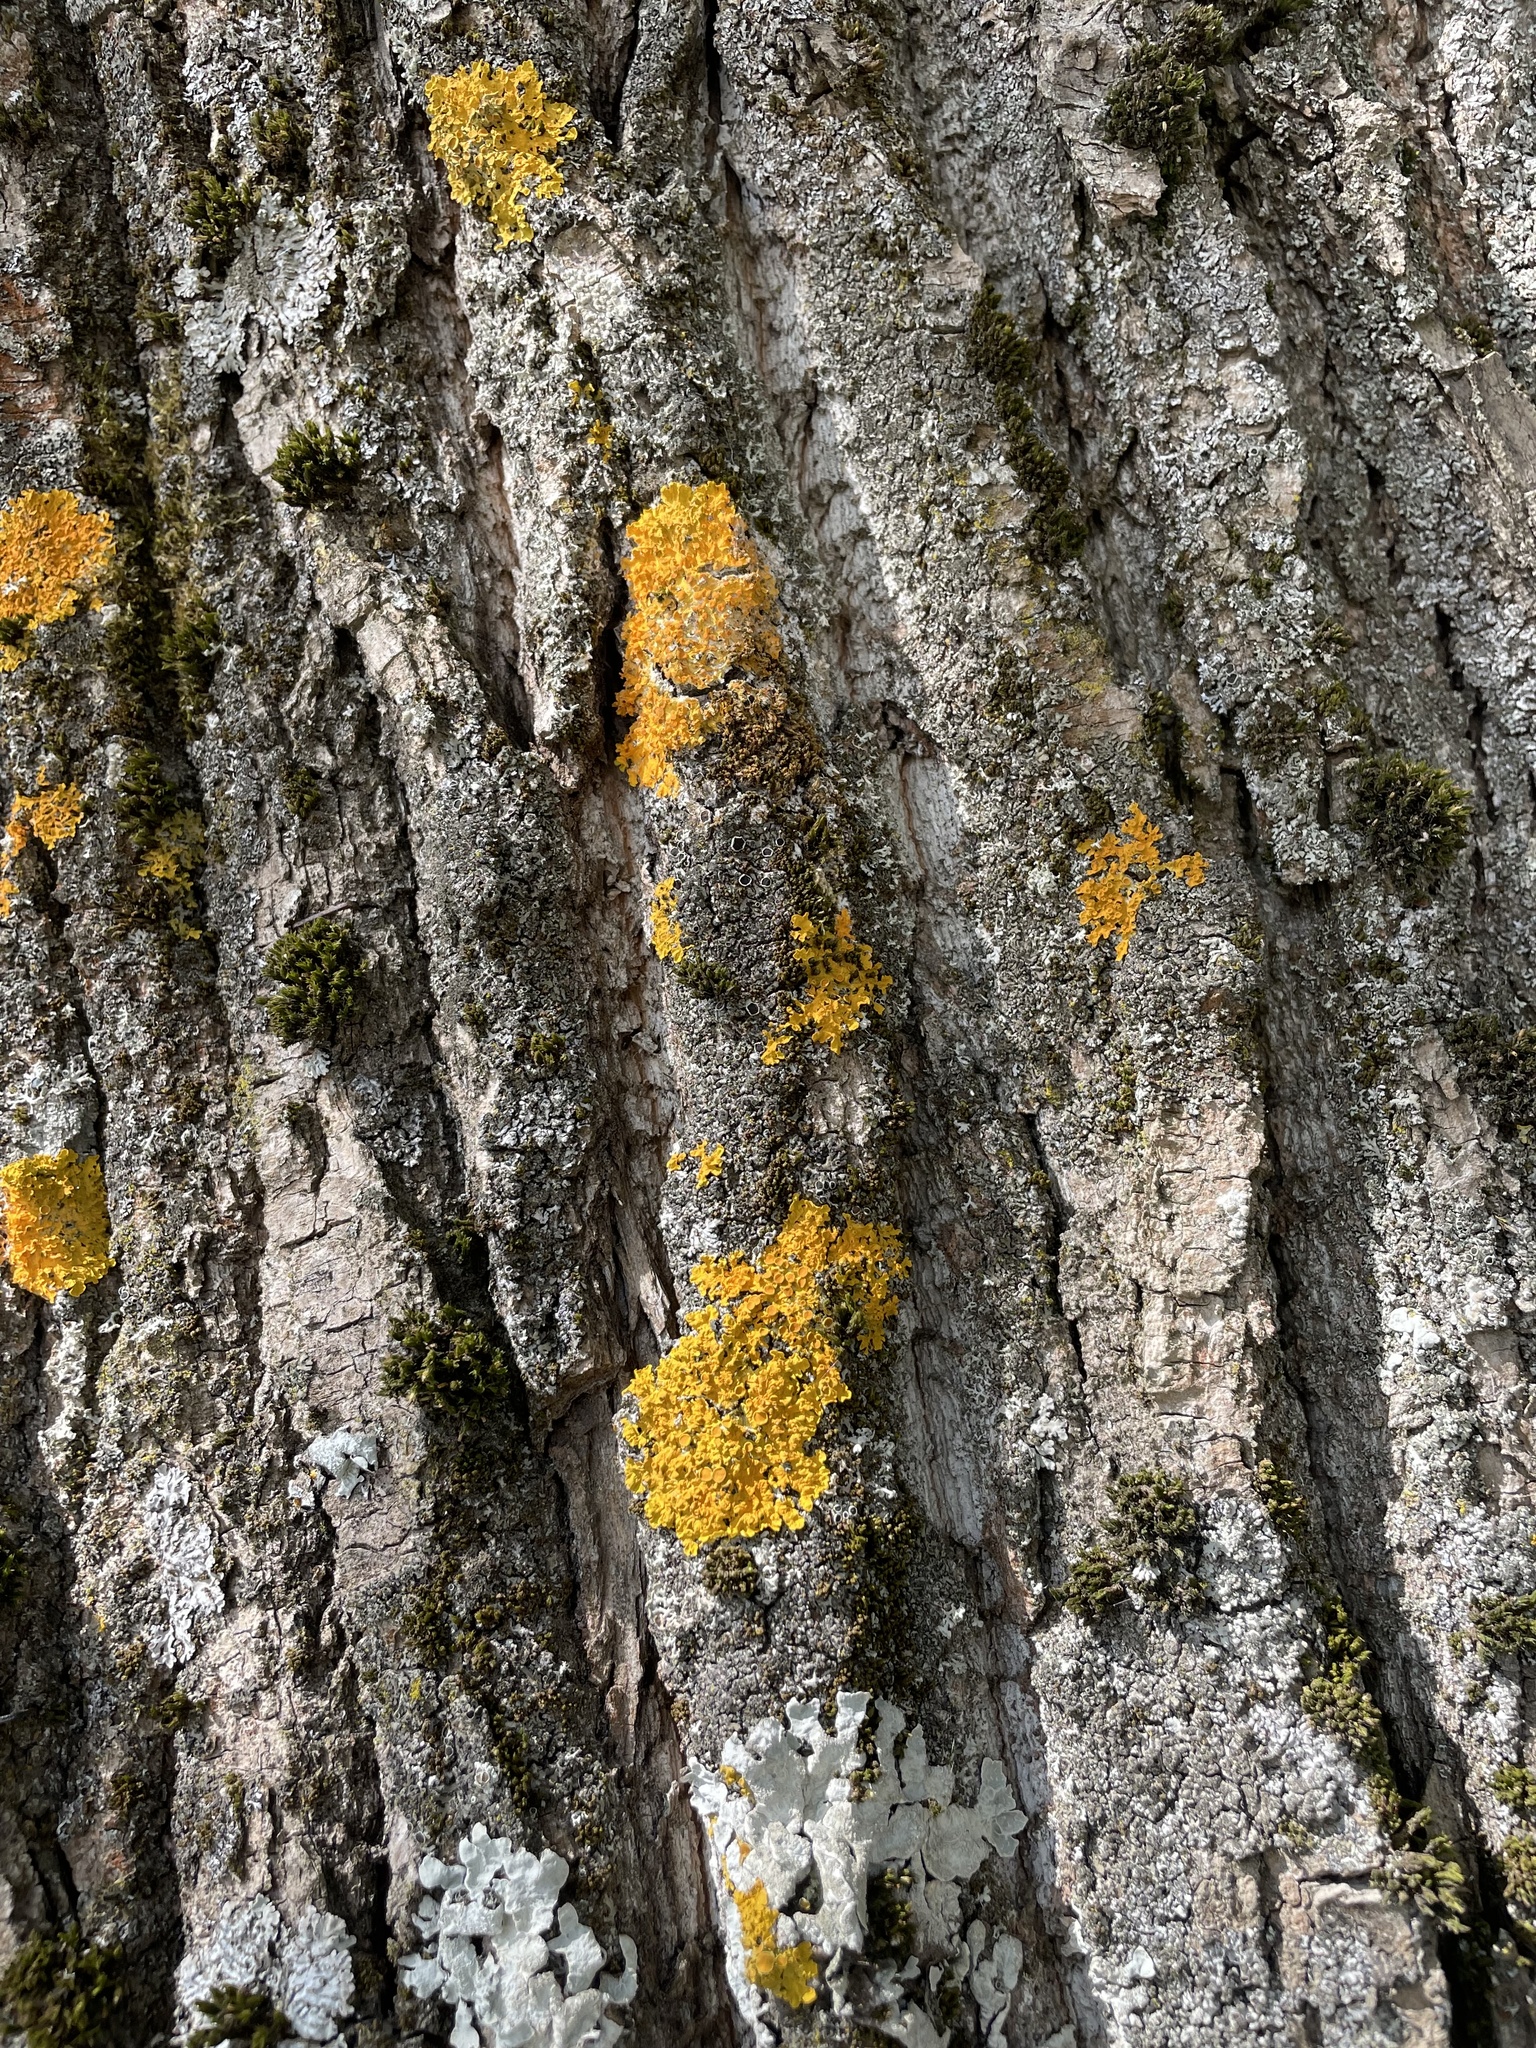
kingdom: Fungi
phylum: Ascomycota
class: Lecanoromycetes
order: Teloschistales
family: Teloschistaceae
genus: Xanthoria
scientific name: Xanthoria parietina
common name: Common orange lichen
